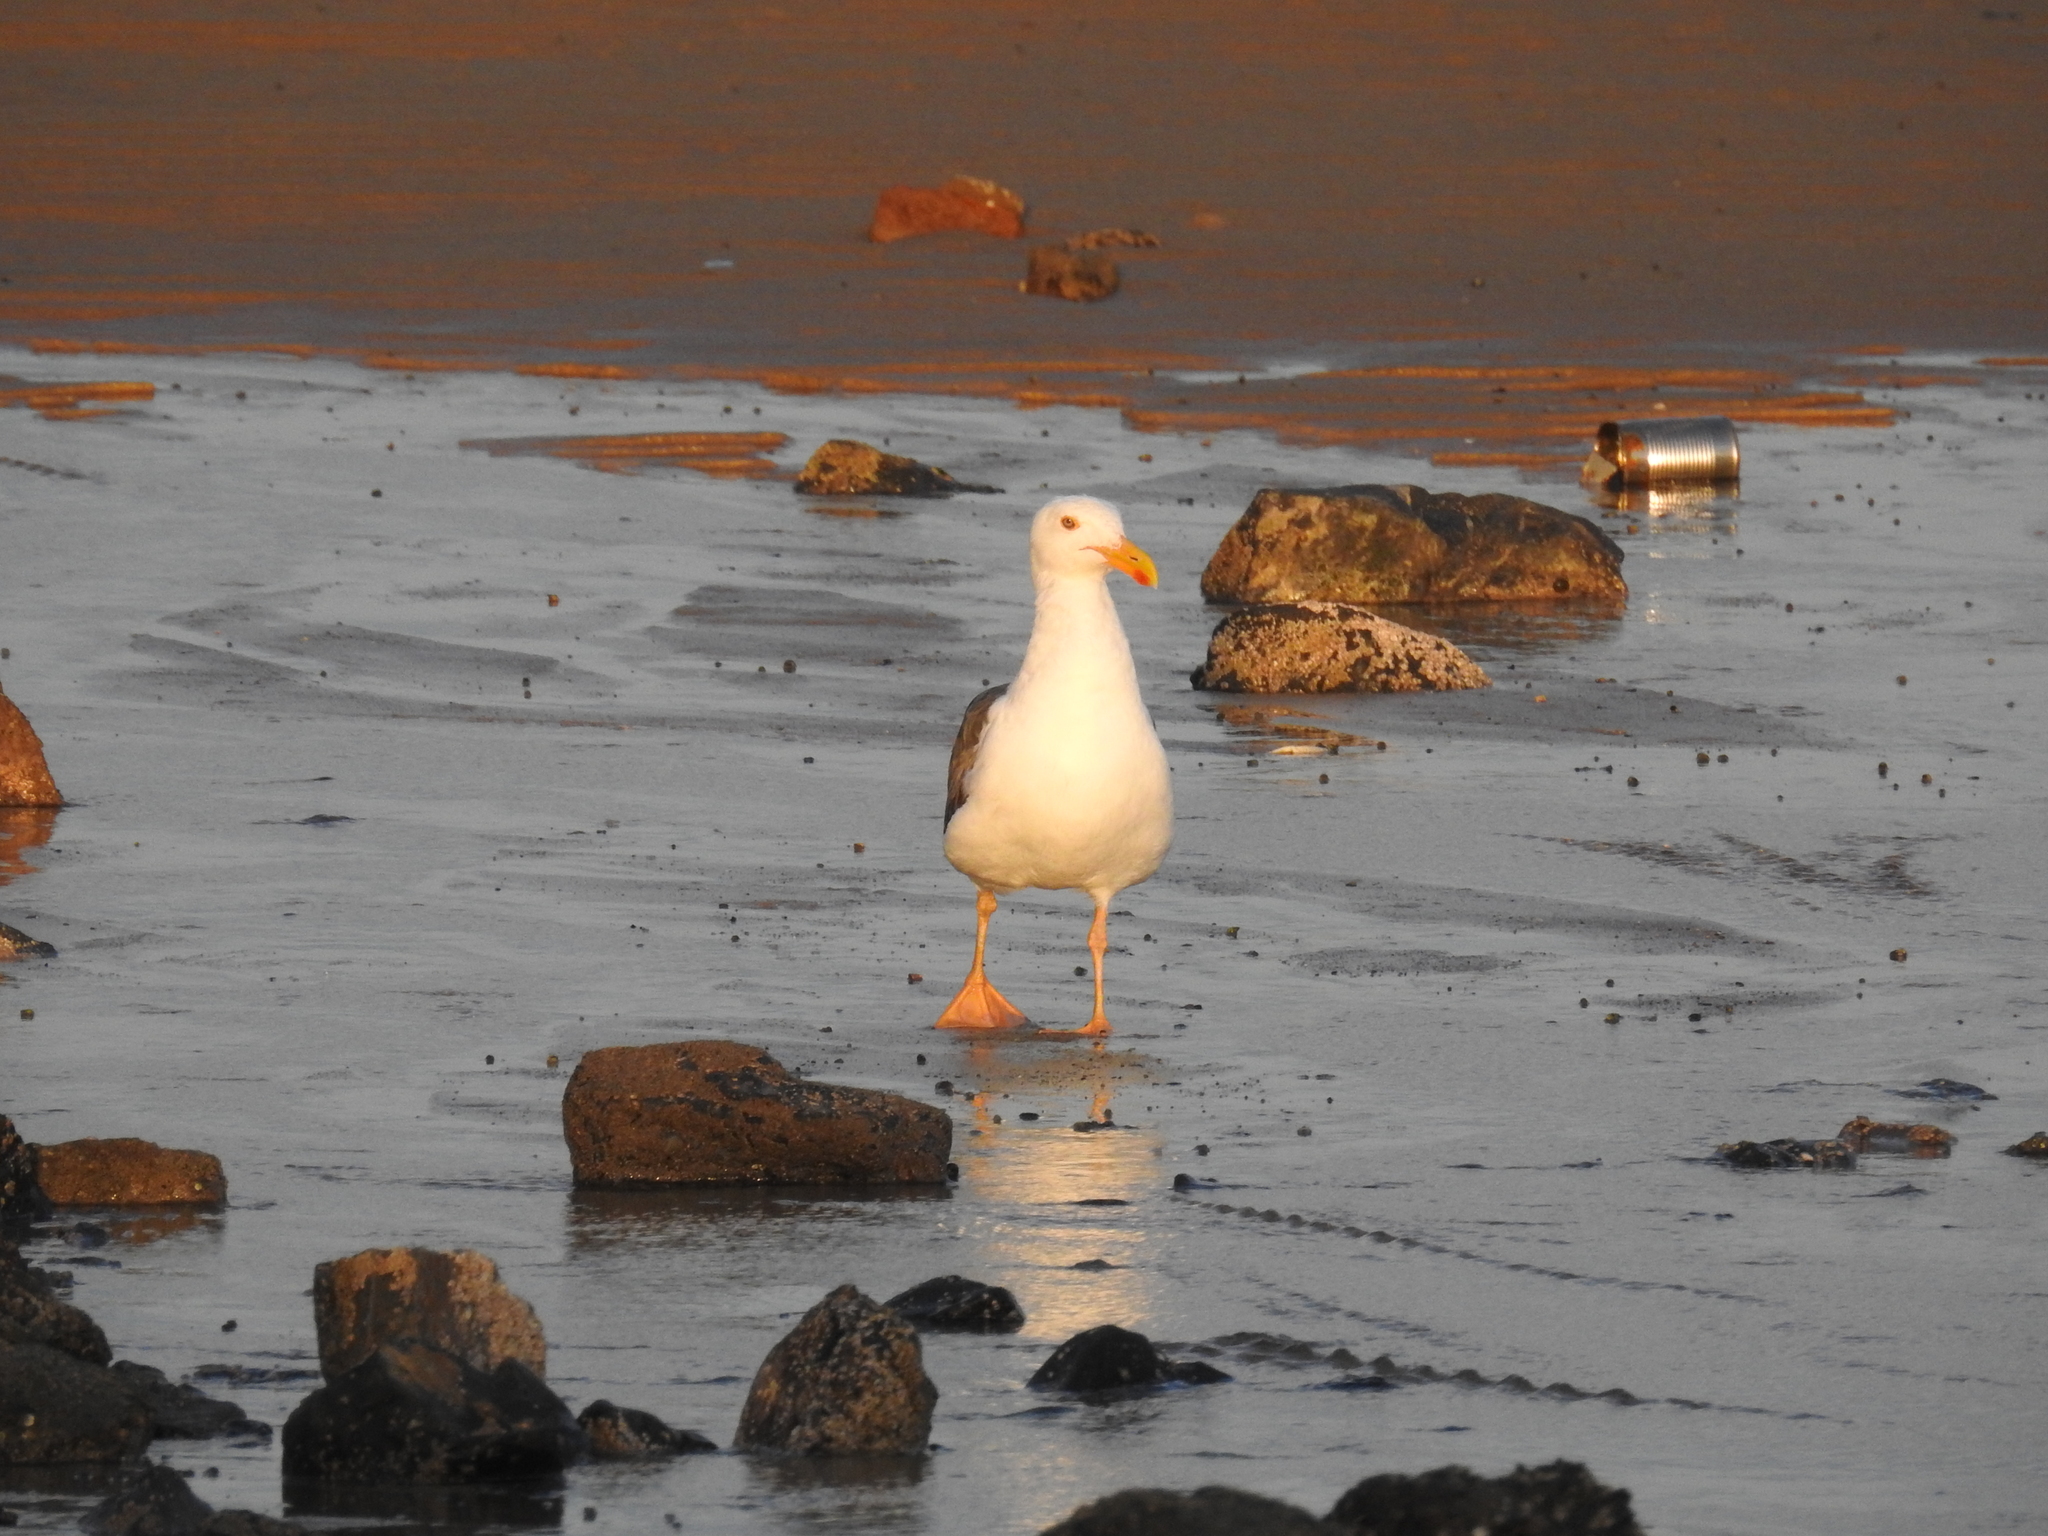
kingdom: Animalia
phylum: Chordata
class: Aves
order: Charadriiformes
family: Laridae
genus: Larus
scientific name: Larus livens
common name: Yellow-footed gull
